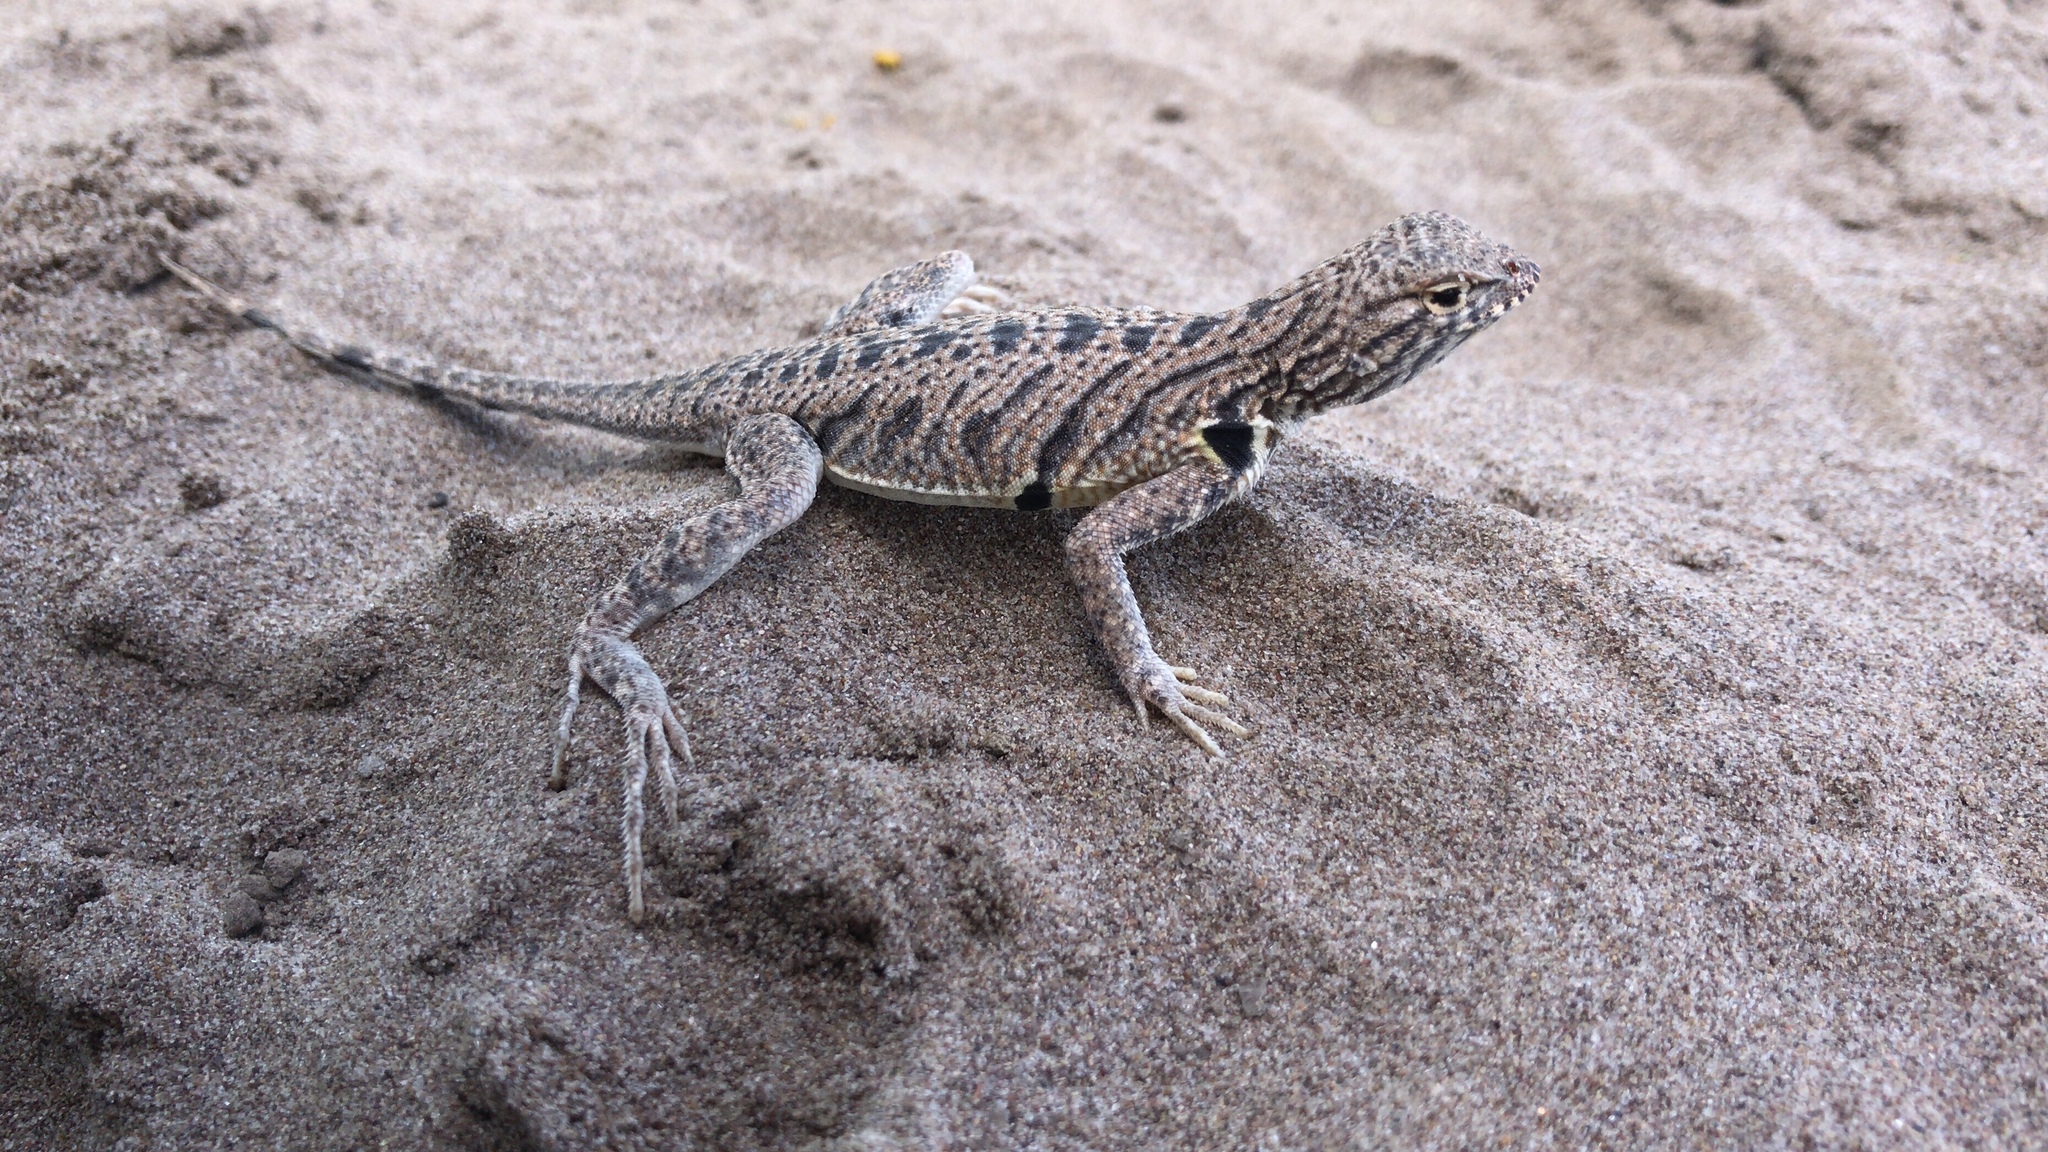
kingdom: Animalia
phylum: Chordata
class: Squamata
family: Phrynosomatidae
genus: Uma
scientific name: Uma exsul
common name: Fringe-toed sand lizard
